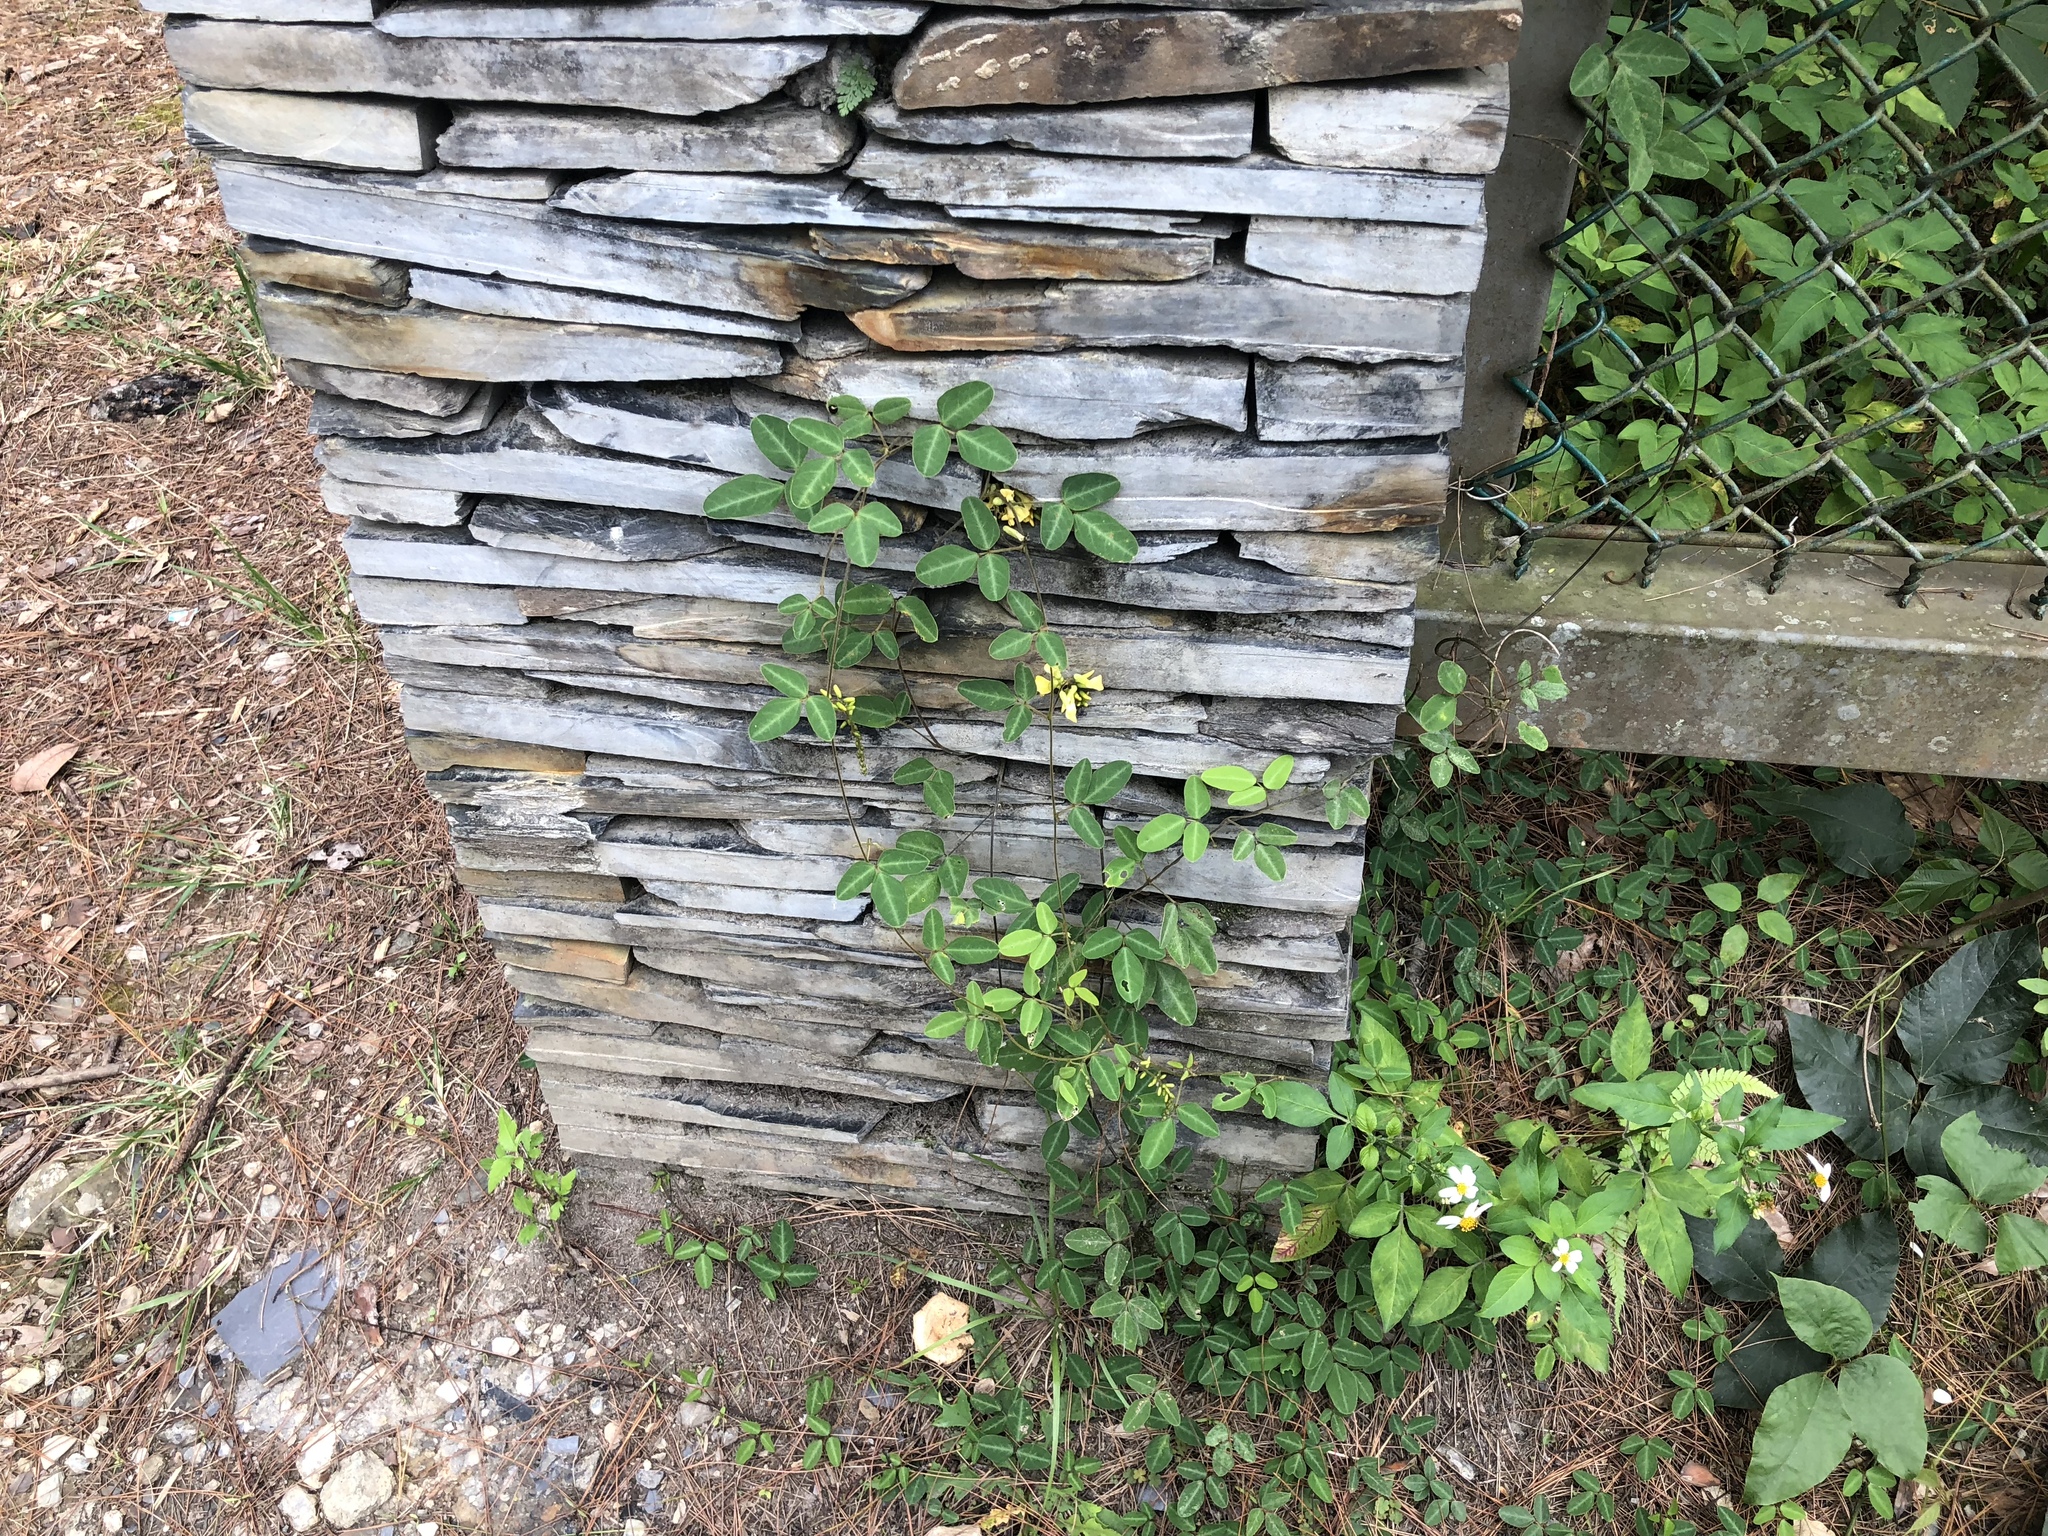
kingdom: Plantae
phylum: Tracheophyta
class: Magnoliopsida
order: Fabales
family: Fabaceae
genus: Dumasia
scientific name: Dumasia villosa
